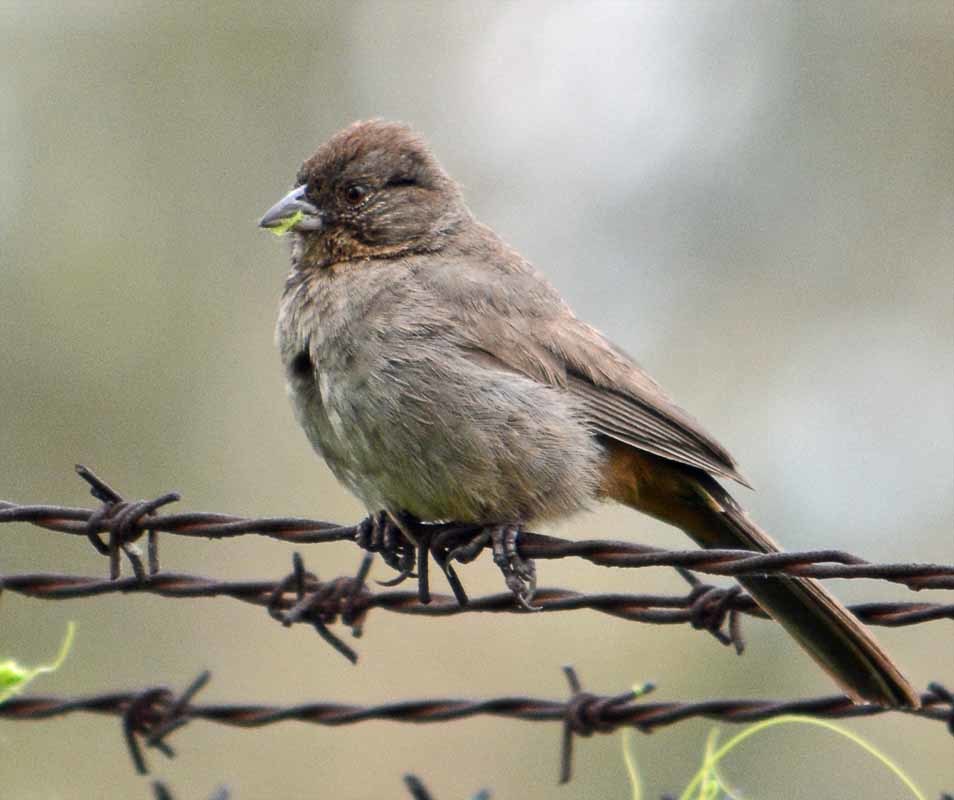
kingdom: Animalia
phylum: Chordata
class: Aves
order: Passeriformes
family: Passerellidae
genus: Melozone
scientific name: Melozone fusca
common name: Canyon towhee
